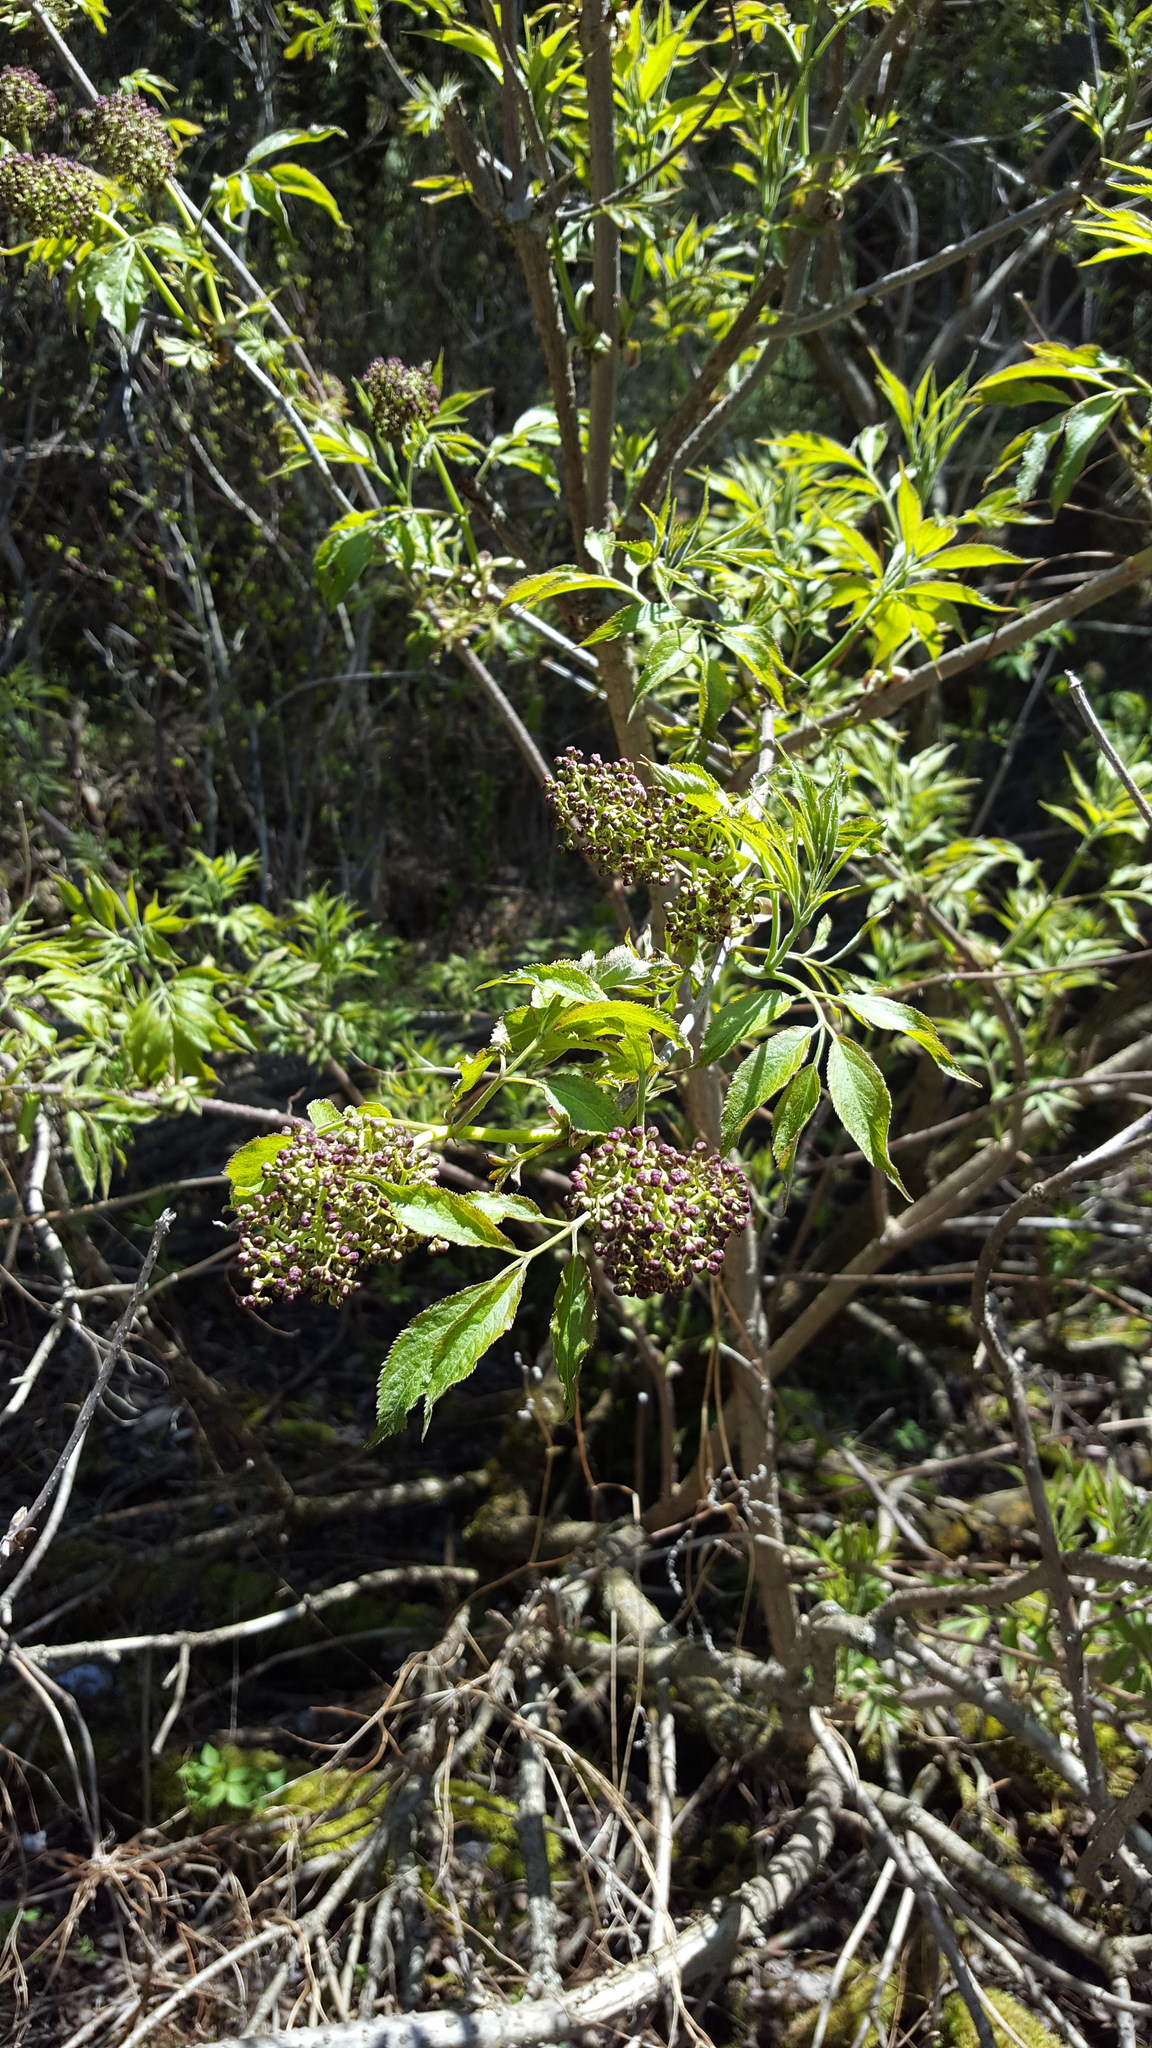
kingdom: Plantae
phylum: Tracheophyta
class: Magnoliopsida
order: Dipsacales
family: Viburnaceae
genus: Sambucus
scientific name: Sambucus racemosa
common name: Red-berried elder
